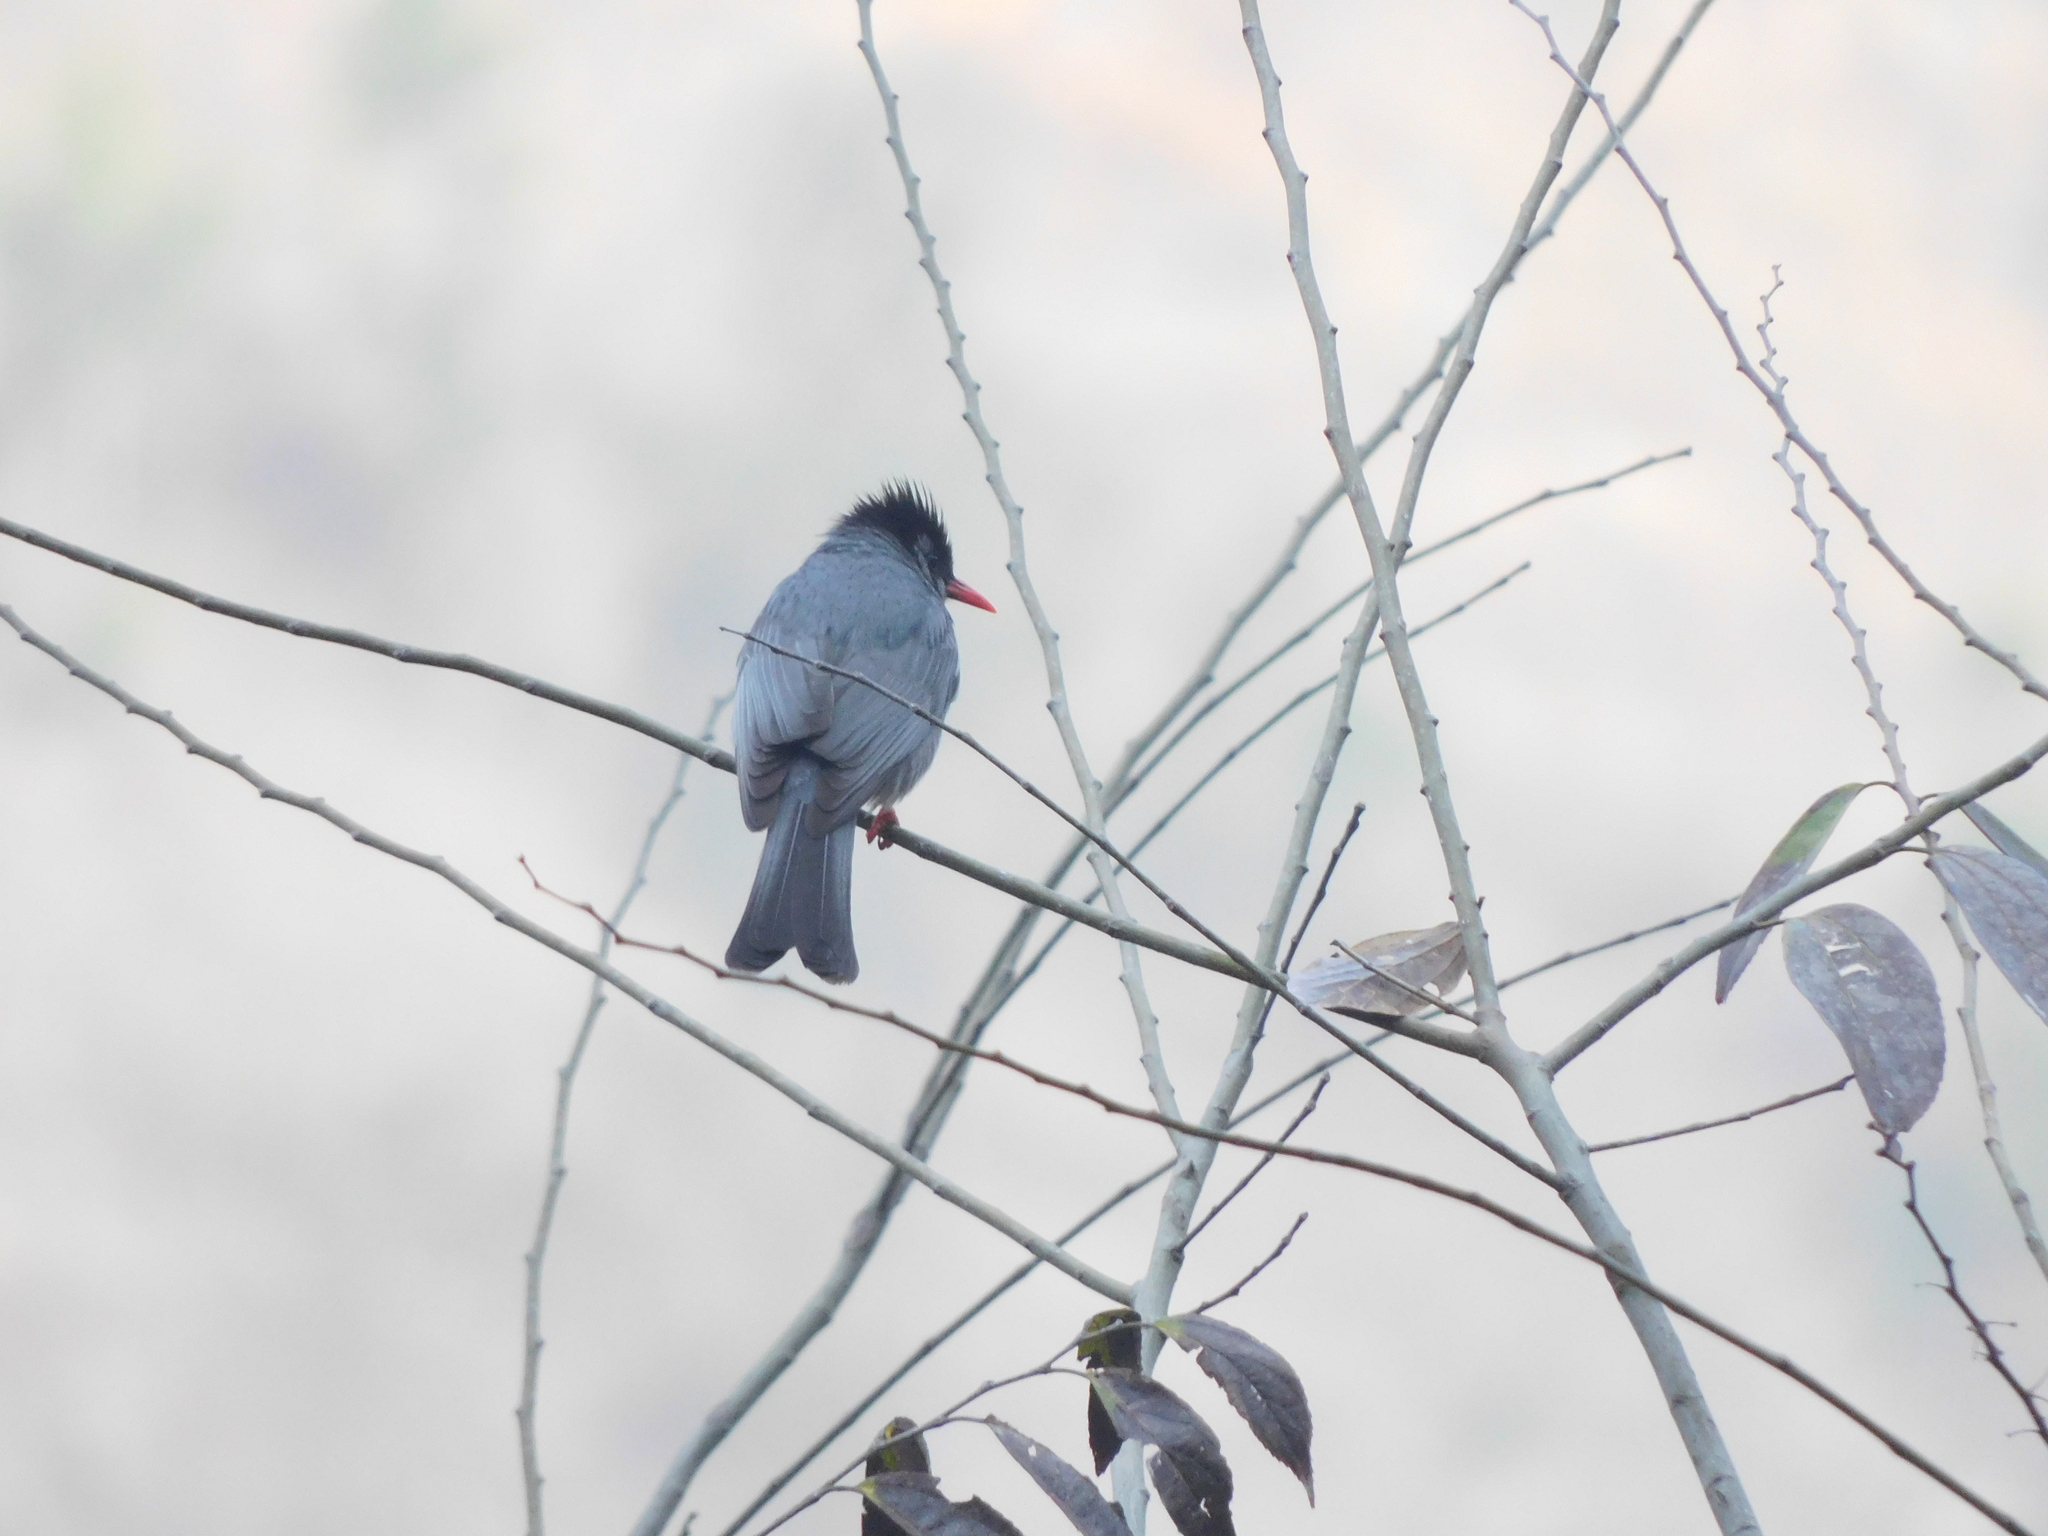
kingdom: Animalia
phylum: Chordata
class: Aves
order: Passeriformes
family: Pycnonotidae
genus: Hypsipetes
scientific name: Hypsipetes leucocephalus
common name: Black bulbul
